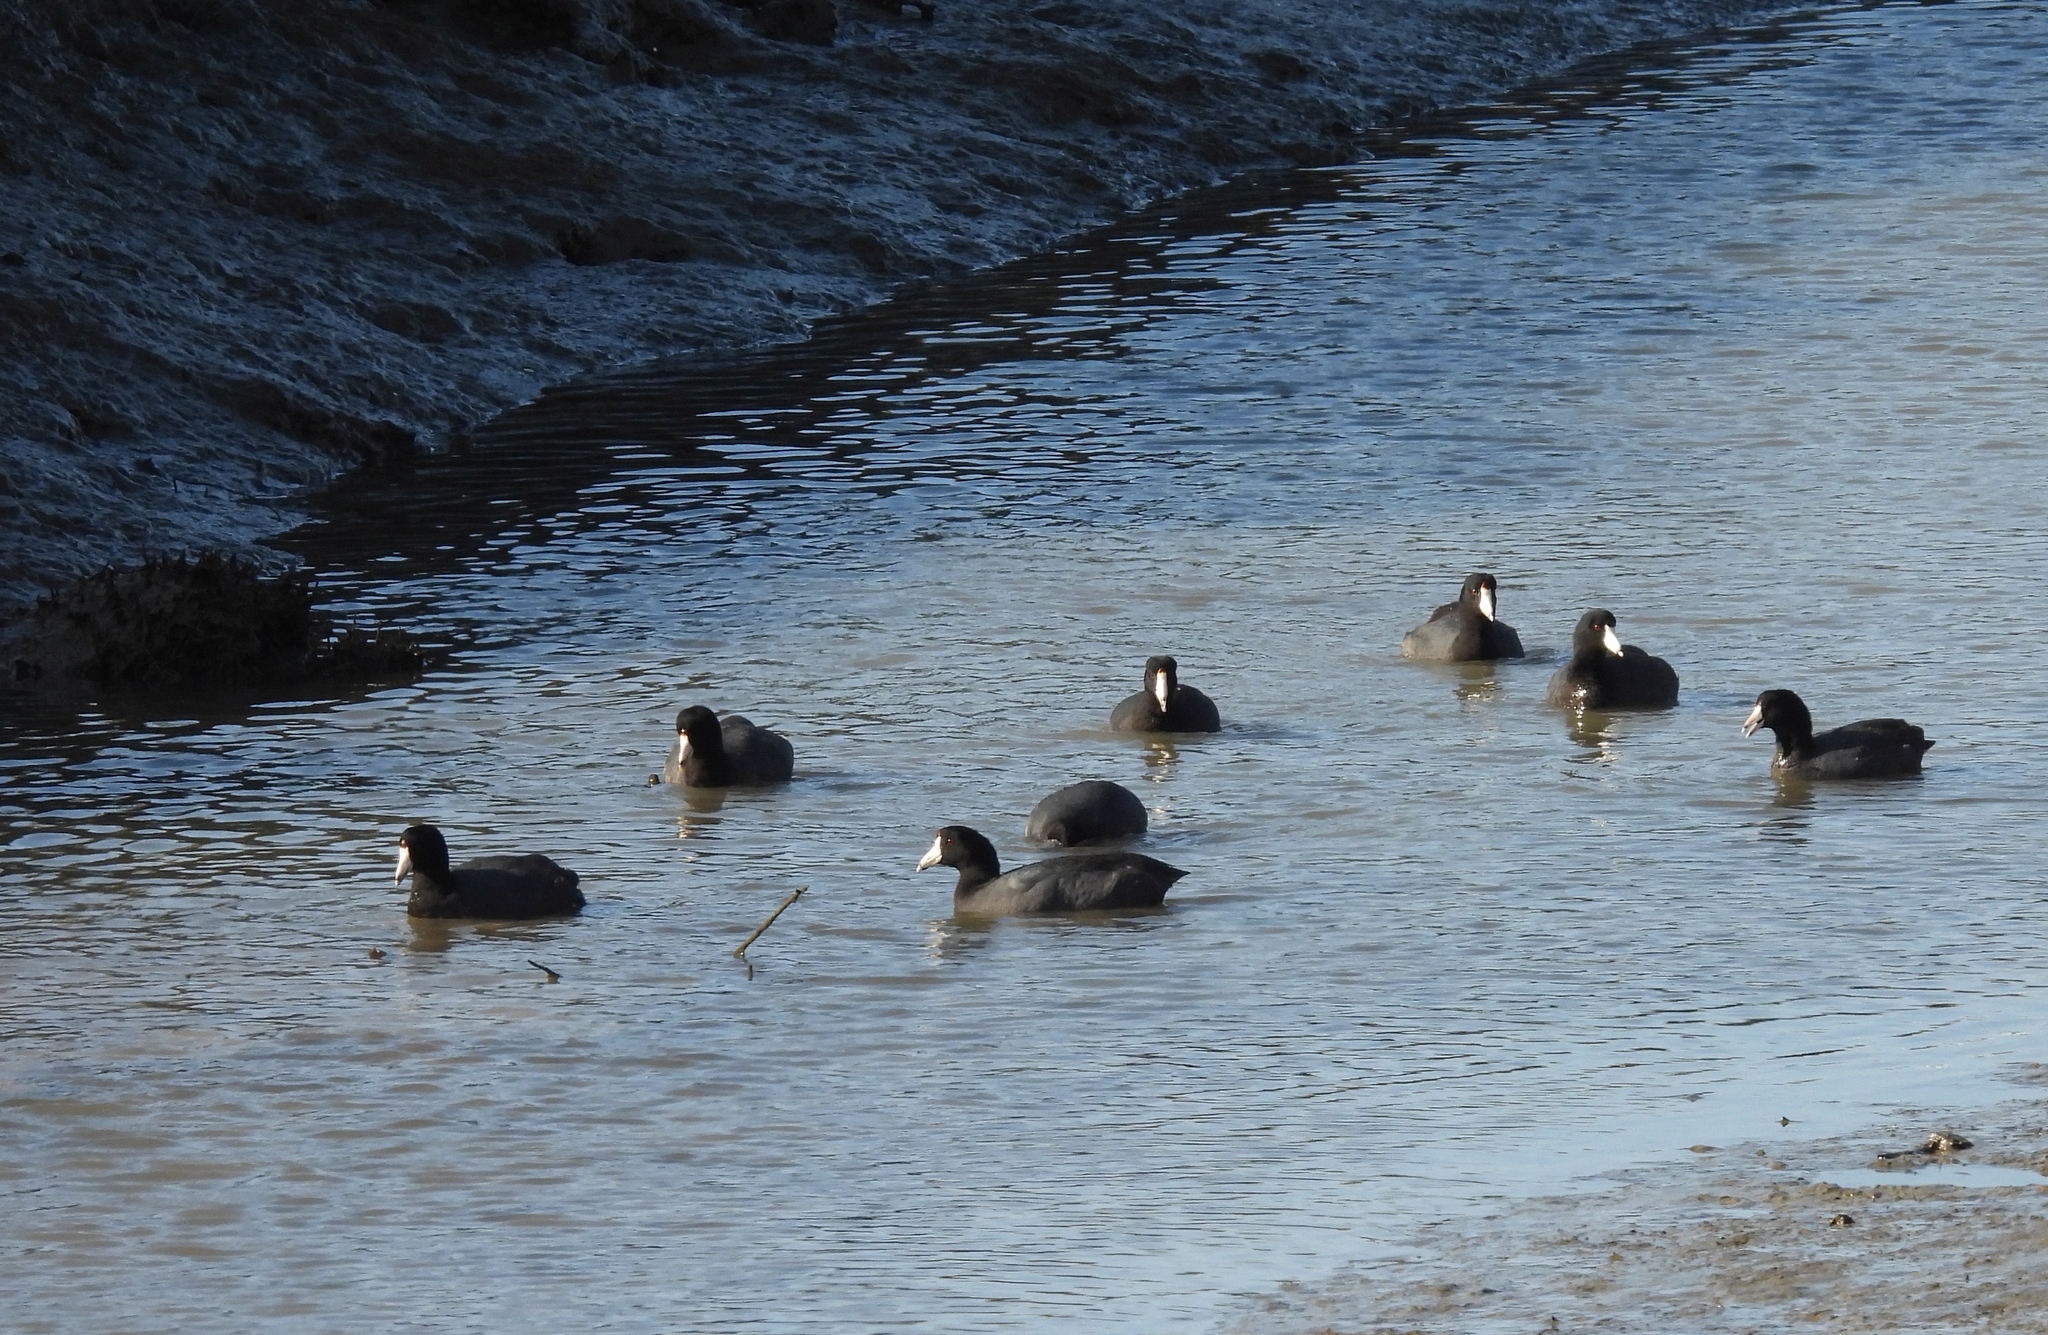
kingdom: Animalia
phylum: Chordata
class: Aves
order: Gruiformes
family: Rallidae
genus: Fulica
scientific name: Fulica americana
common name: American coot
